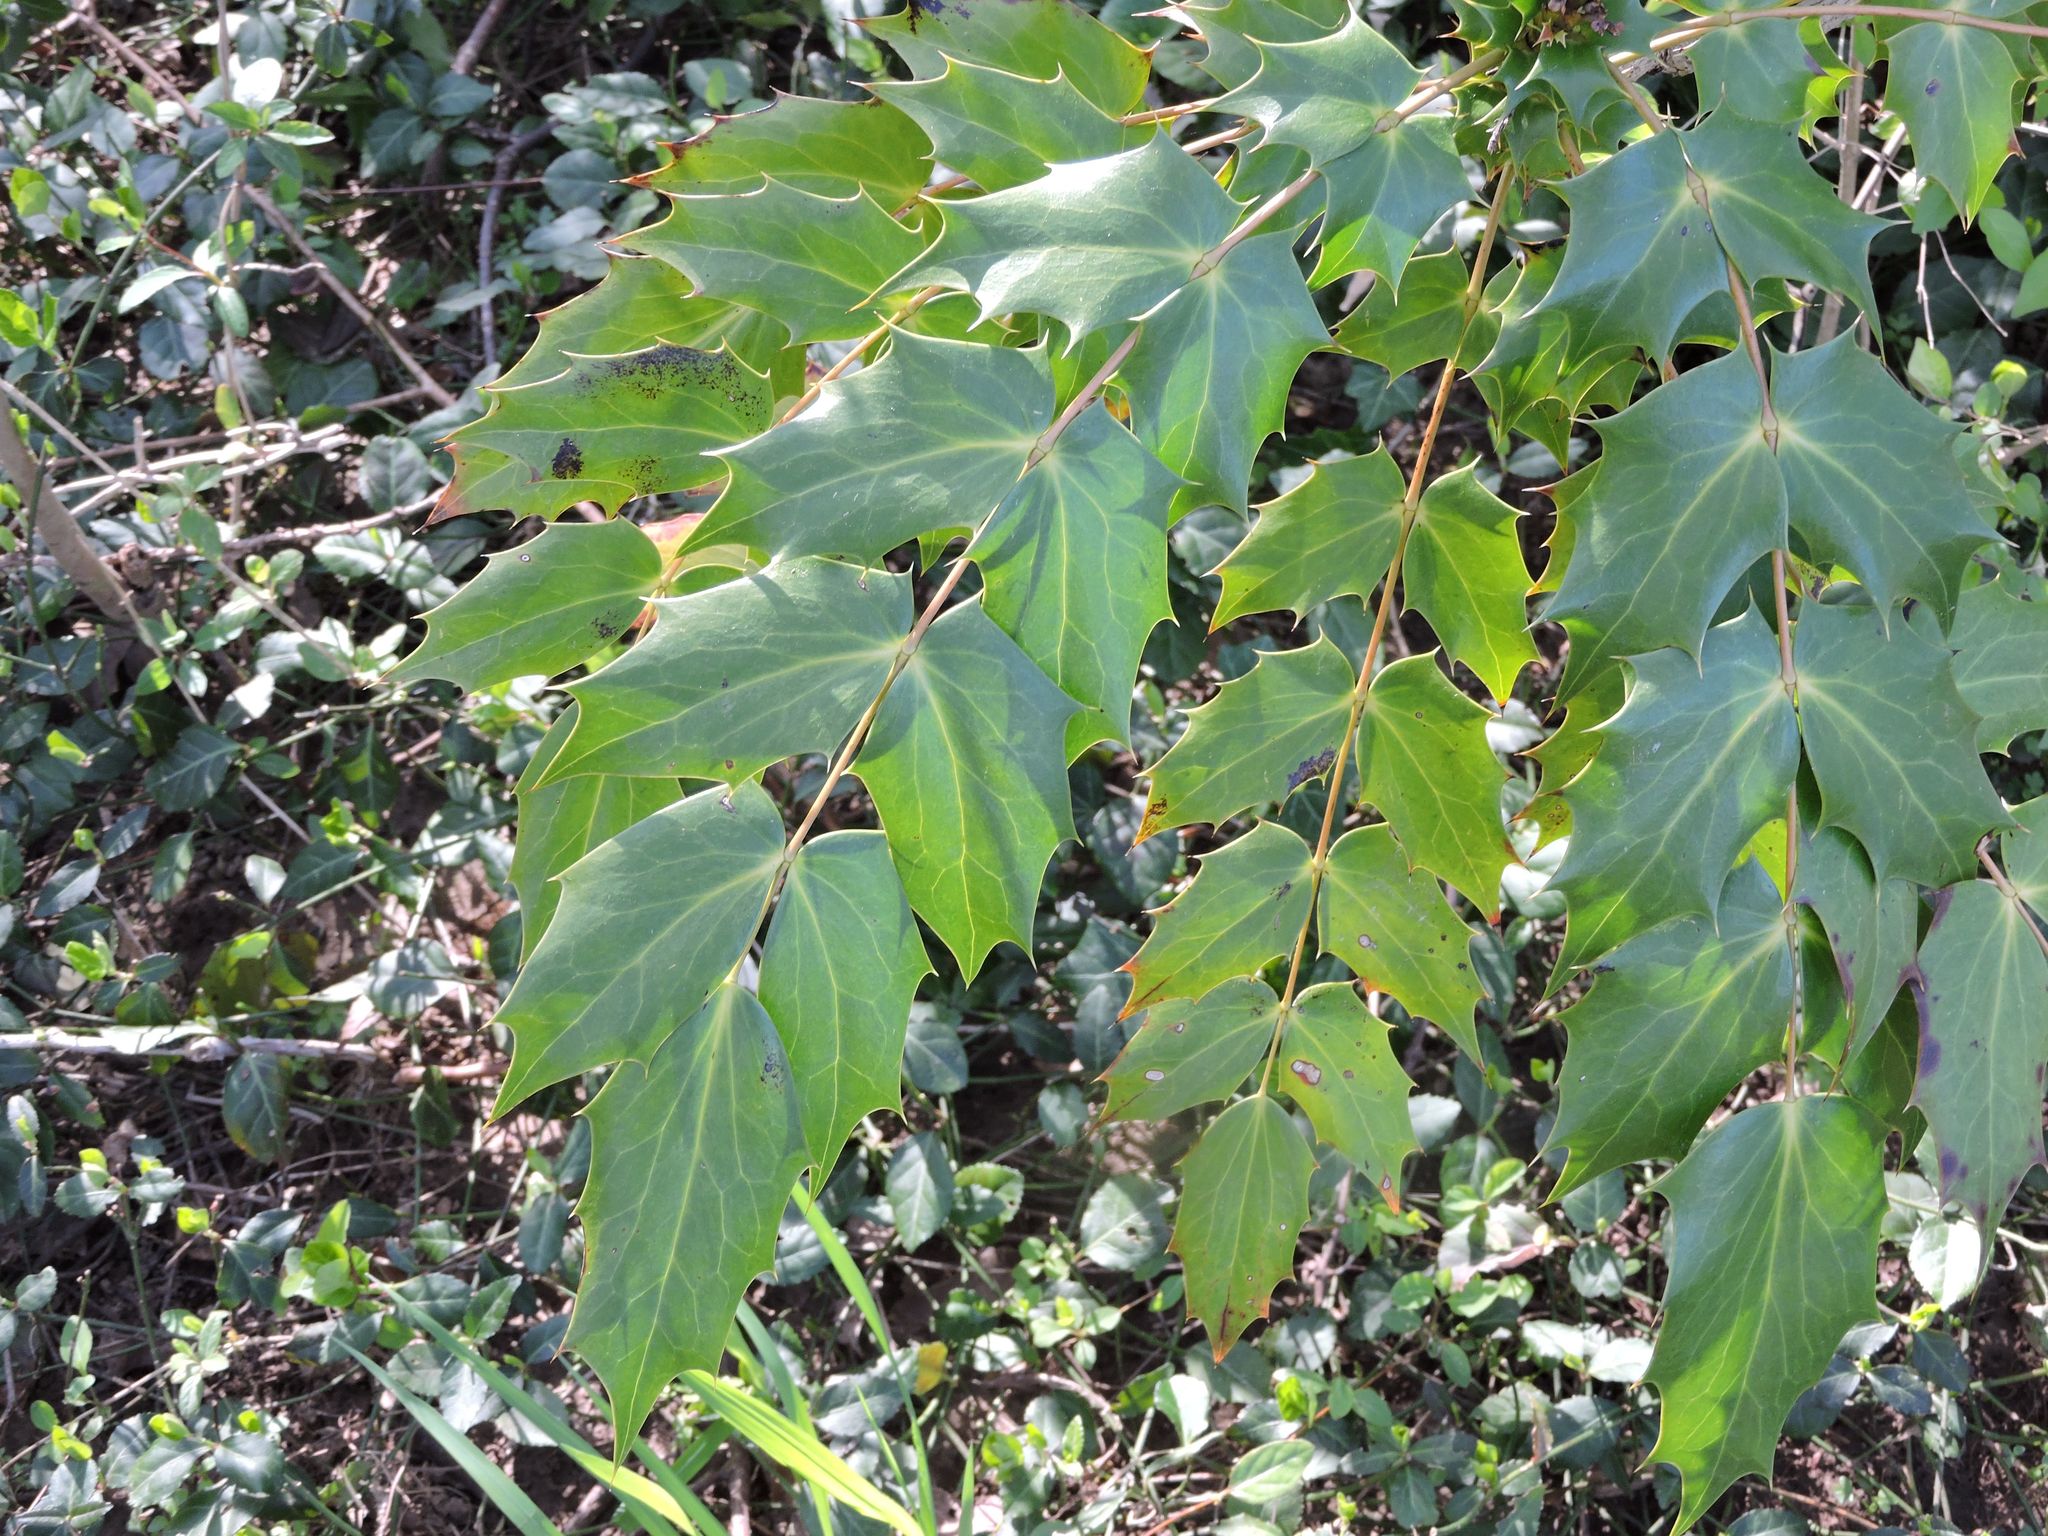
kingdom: Plantae
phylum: Tracheophyta
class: Magnoliopsida
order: Ranunculales
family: Berberidaceae
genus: Mahonia
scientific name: Mahonia bealei
